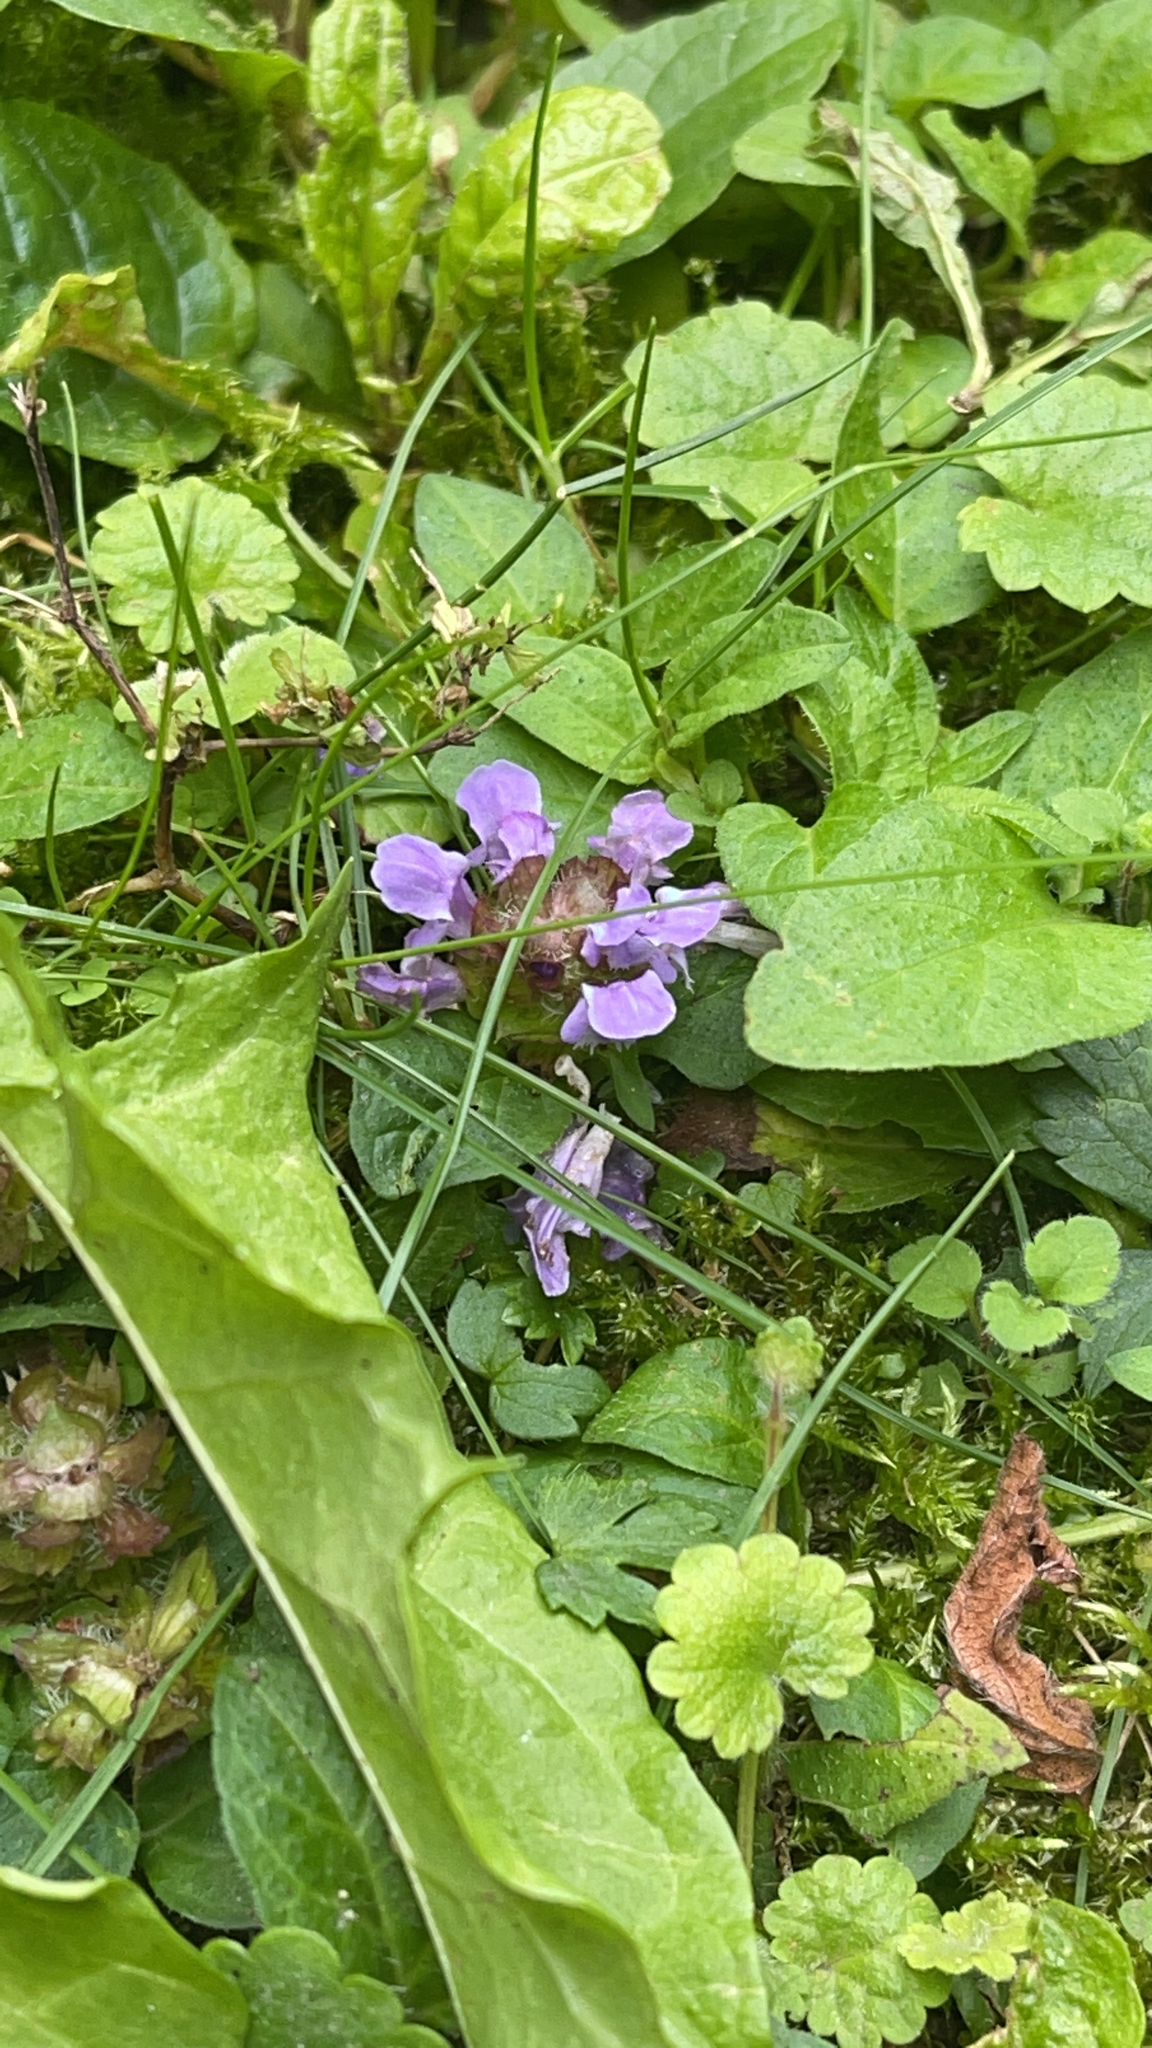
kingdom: Plantae
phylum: Tracheophyta
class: Magnoliopsida
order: Lamiales
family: Lamiaceae
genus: Prunella
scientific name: Prunella vulgaris
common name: Heal-all
